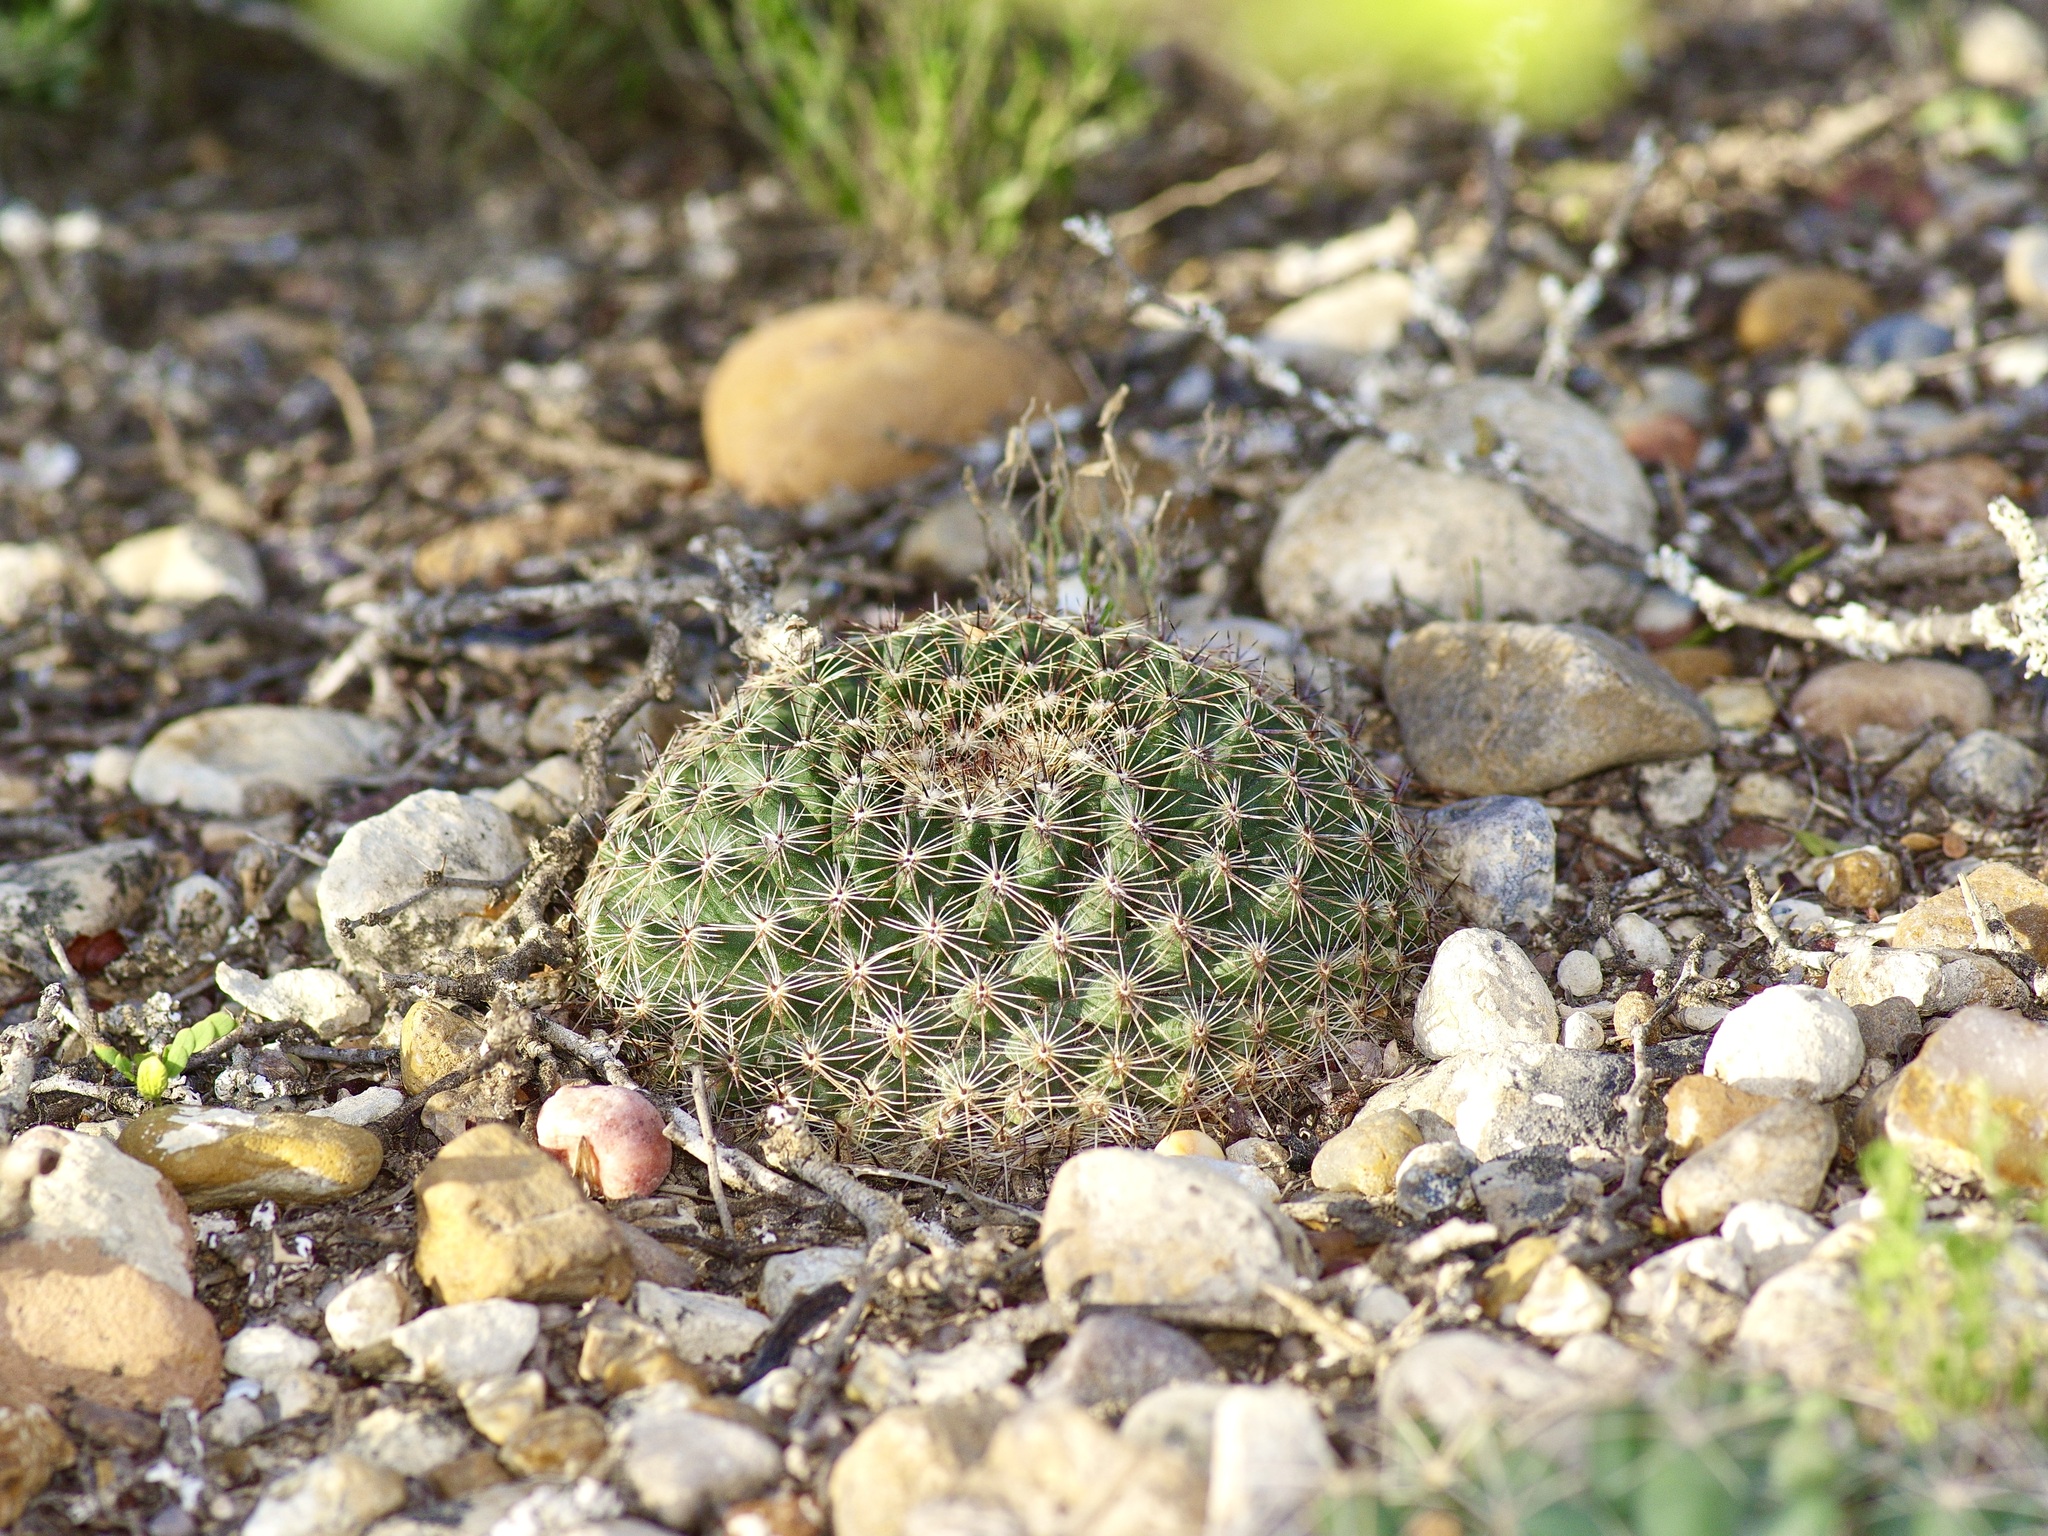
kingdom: Plantae
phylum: Tracheophyta
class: Magnoliopsida
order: Caryophyllales
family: Cactaceae
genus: Mammillaria
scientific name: Mammillaria heyderi
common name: Little nipple cactus
